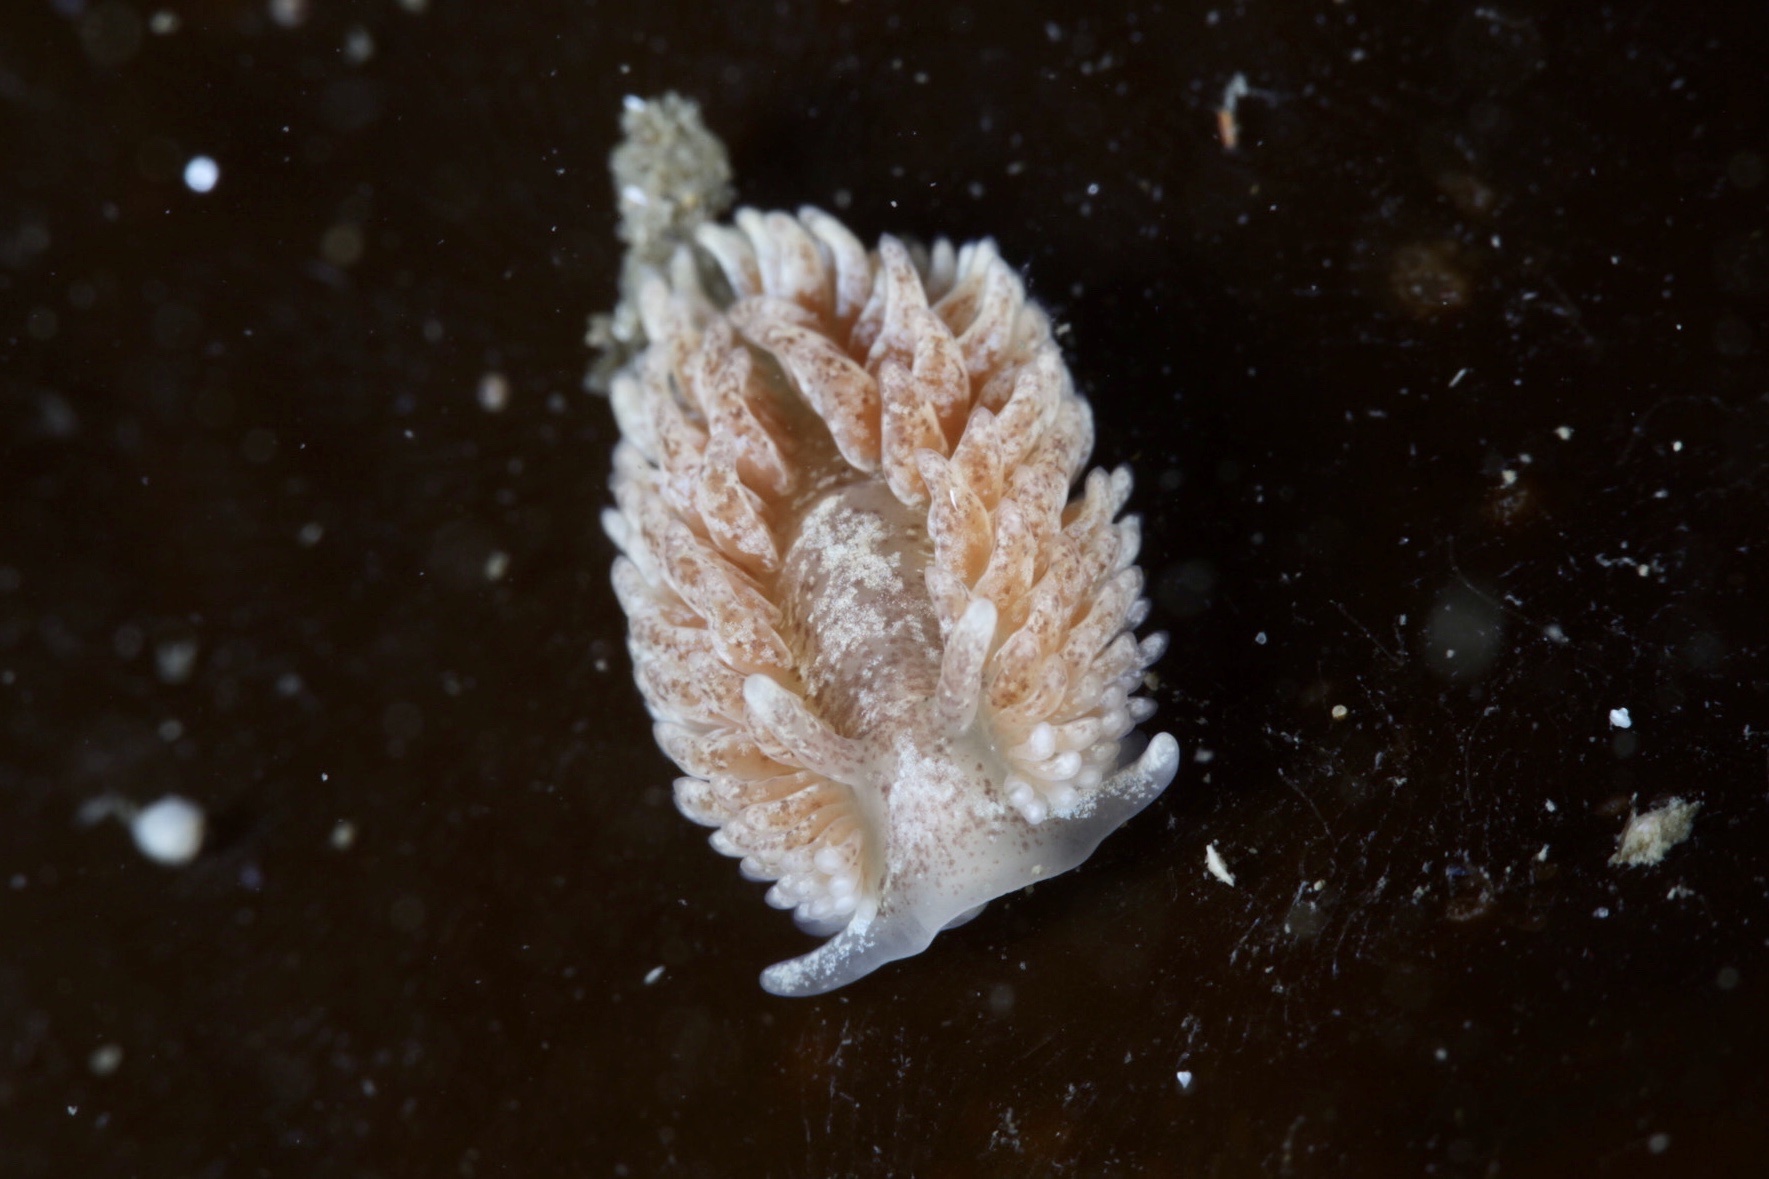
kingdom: Animalia
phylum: Mollusca
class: Gastropoda
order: Nudibranchia
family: Aeolidiidae
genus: Aeolidia
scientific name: Aeolidia filomenae
